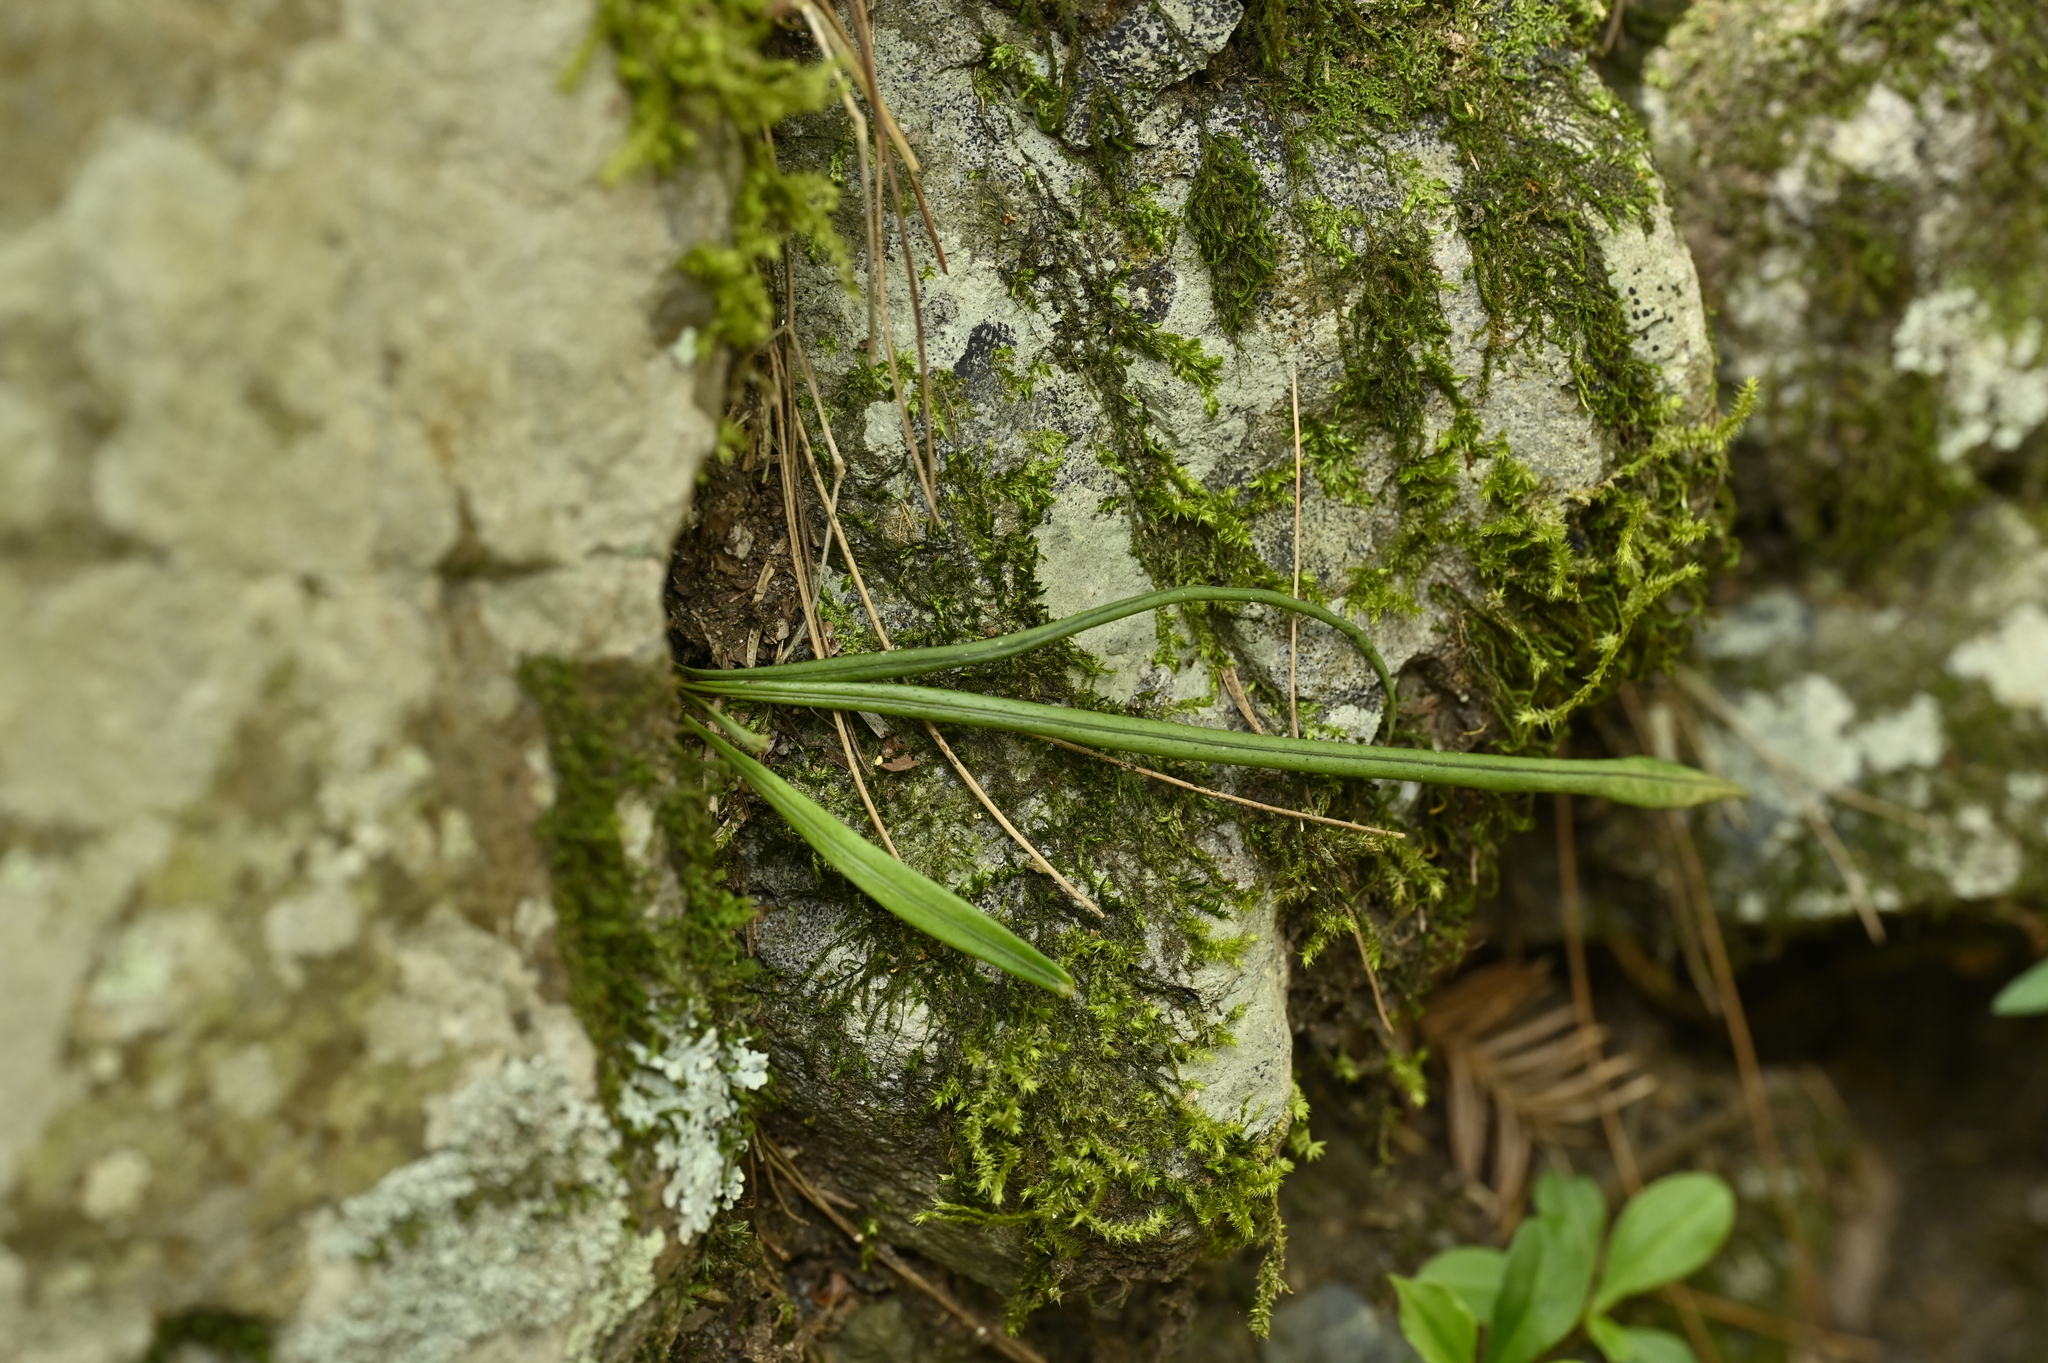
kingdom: Plantae
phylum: Tracheophyta
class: Polypodiopsida
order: Polypodiales
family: Polypodiaceae
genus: Lepisorus
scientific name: Lepisorus thunbergianus
